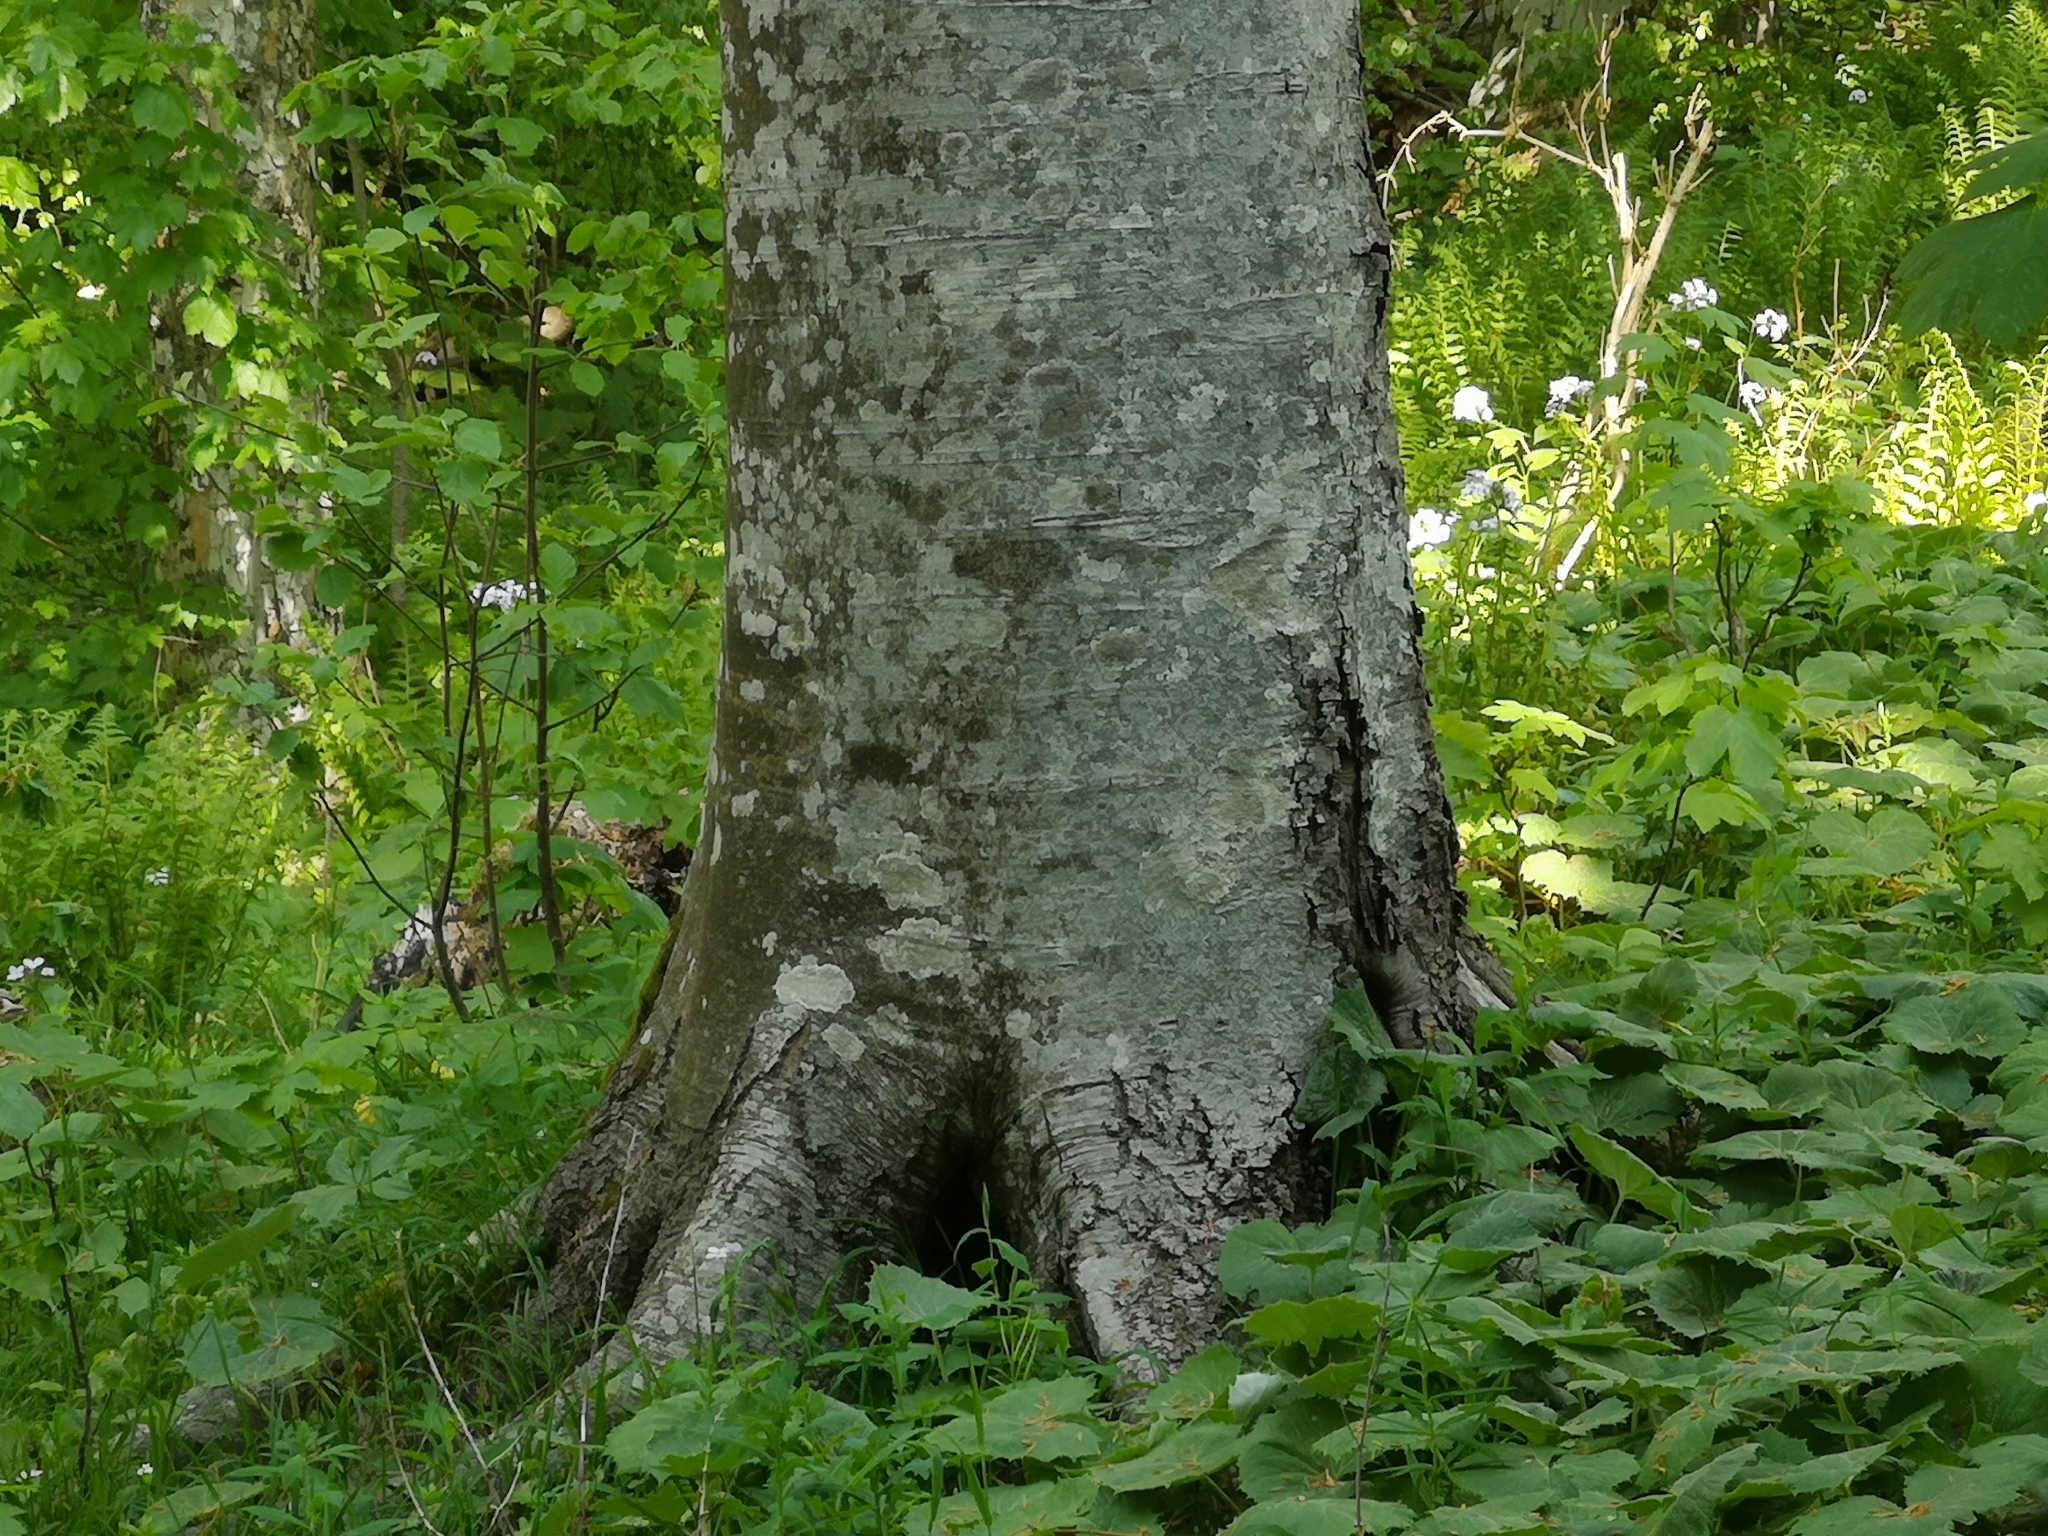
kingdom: Plantae
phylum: Tracheophyta
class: Magnoliopsida
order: Fagales
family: Fagaceae
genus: Fagus
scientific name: Fagus sylvatica
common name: Beech
